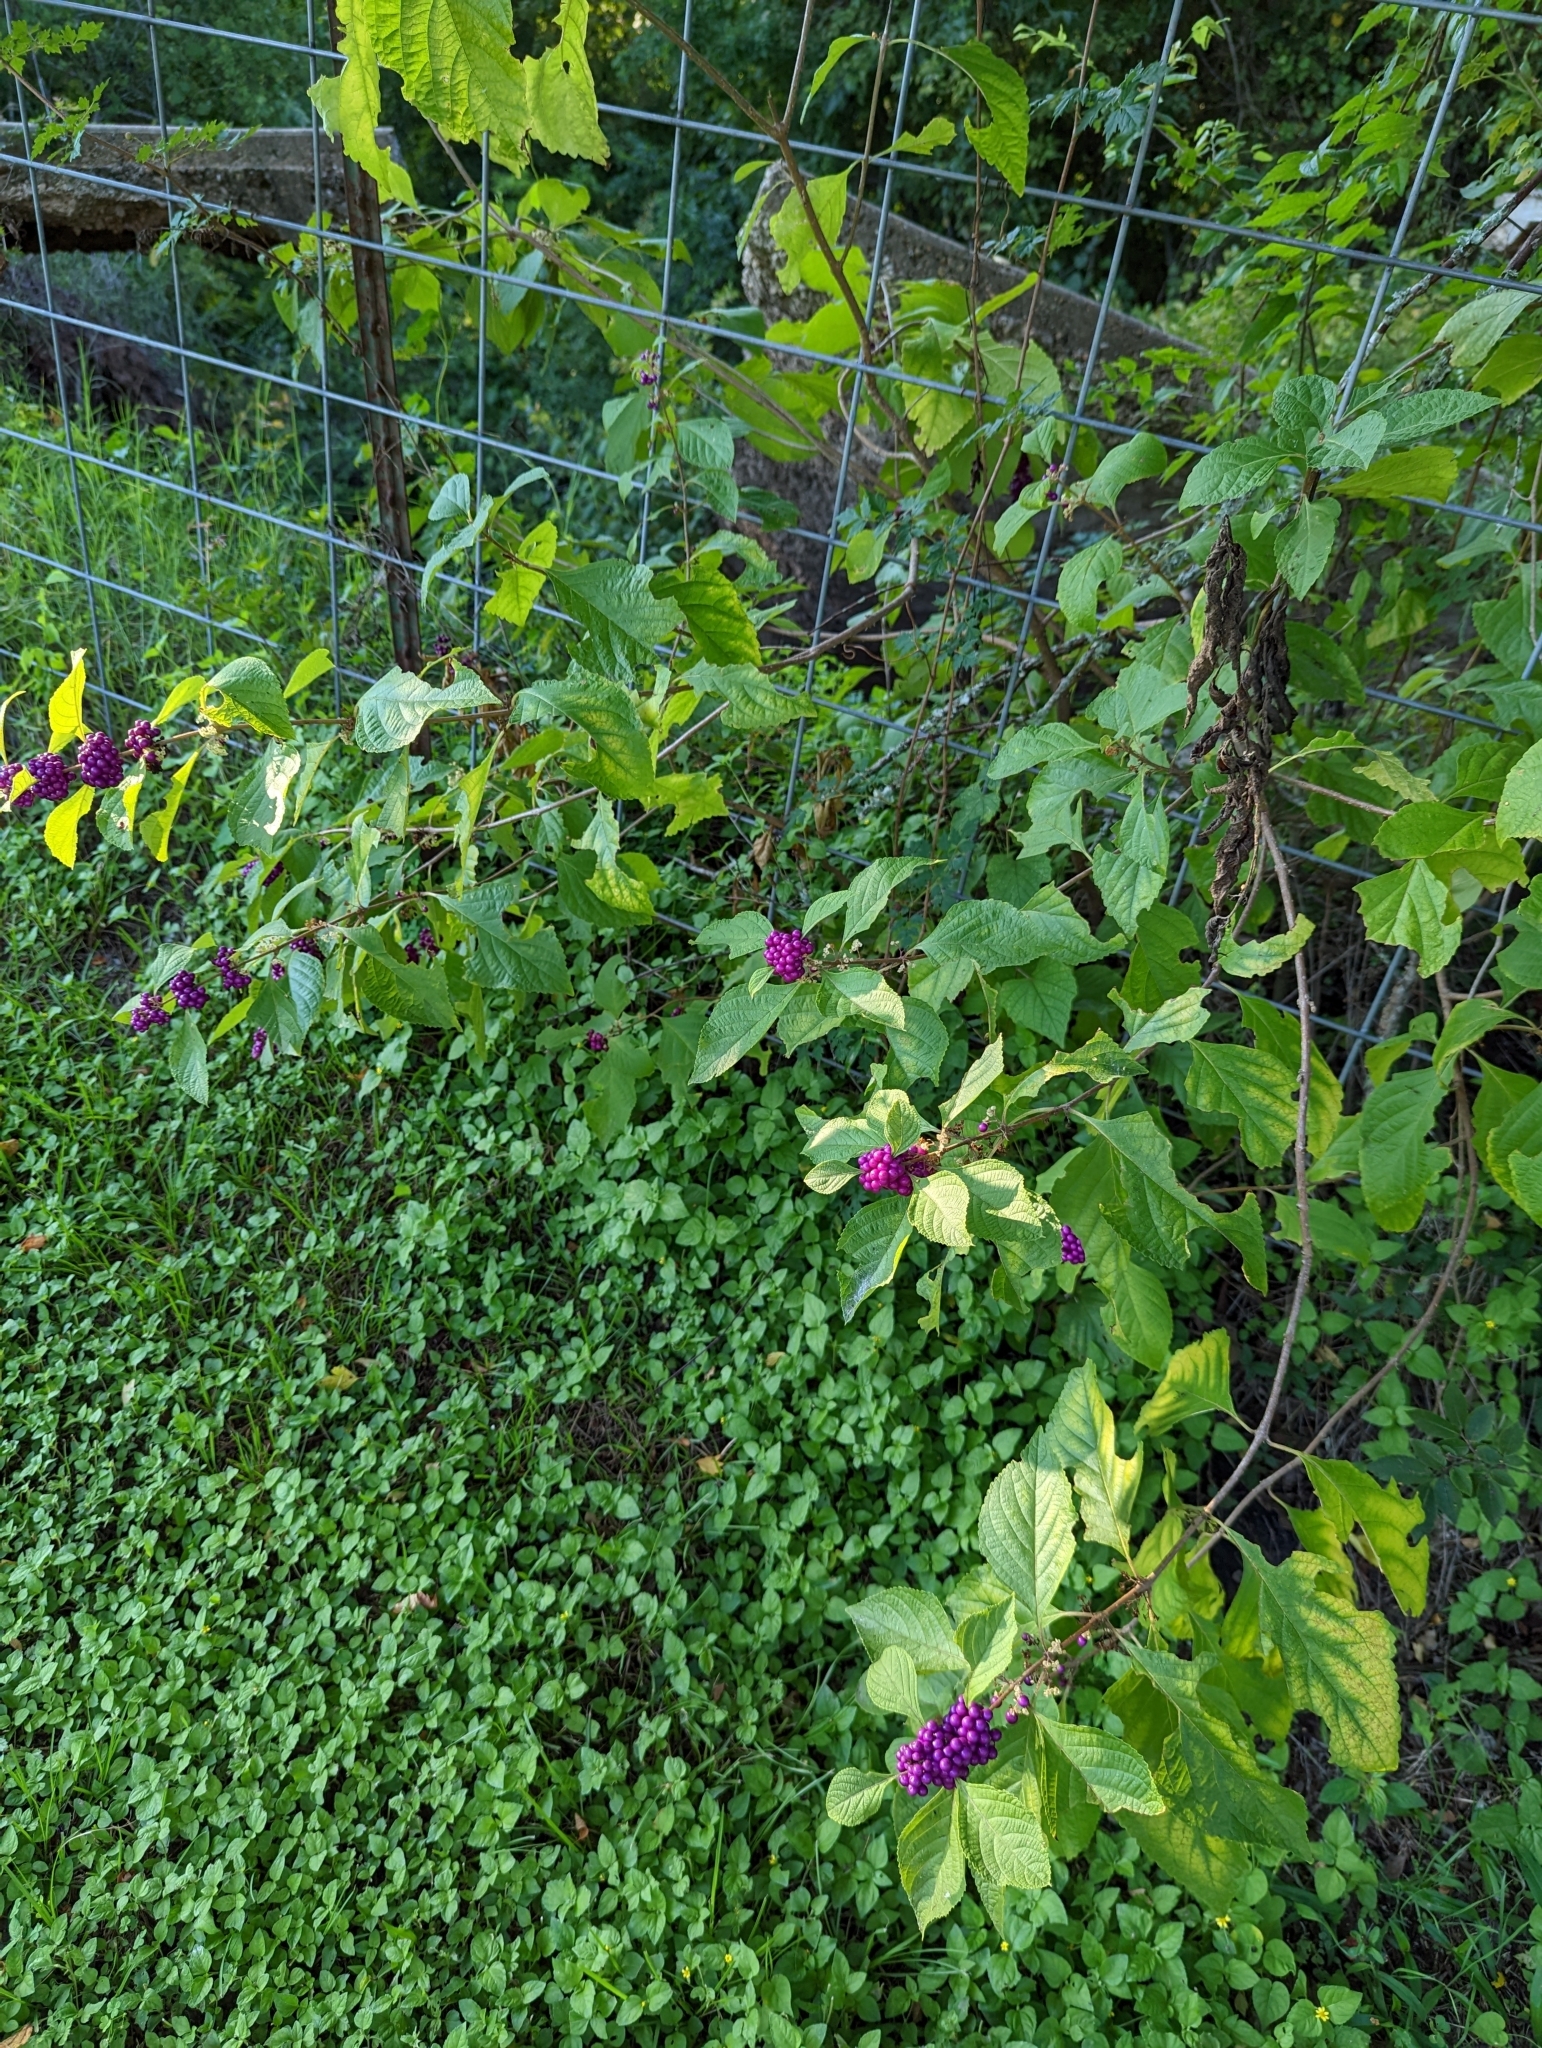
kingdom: Plantae
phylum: Tracheophyta
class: Magnoliopsida
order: Lamiales
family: Lamiaceae
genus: Callicarpa
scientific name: Callicarpa americana
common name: American beautyberry
